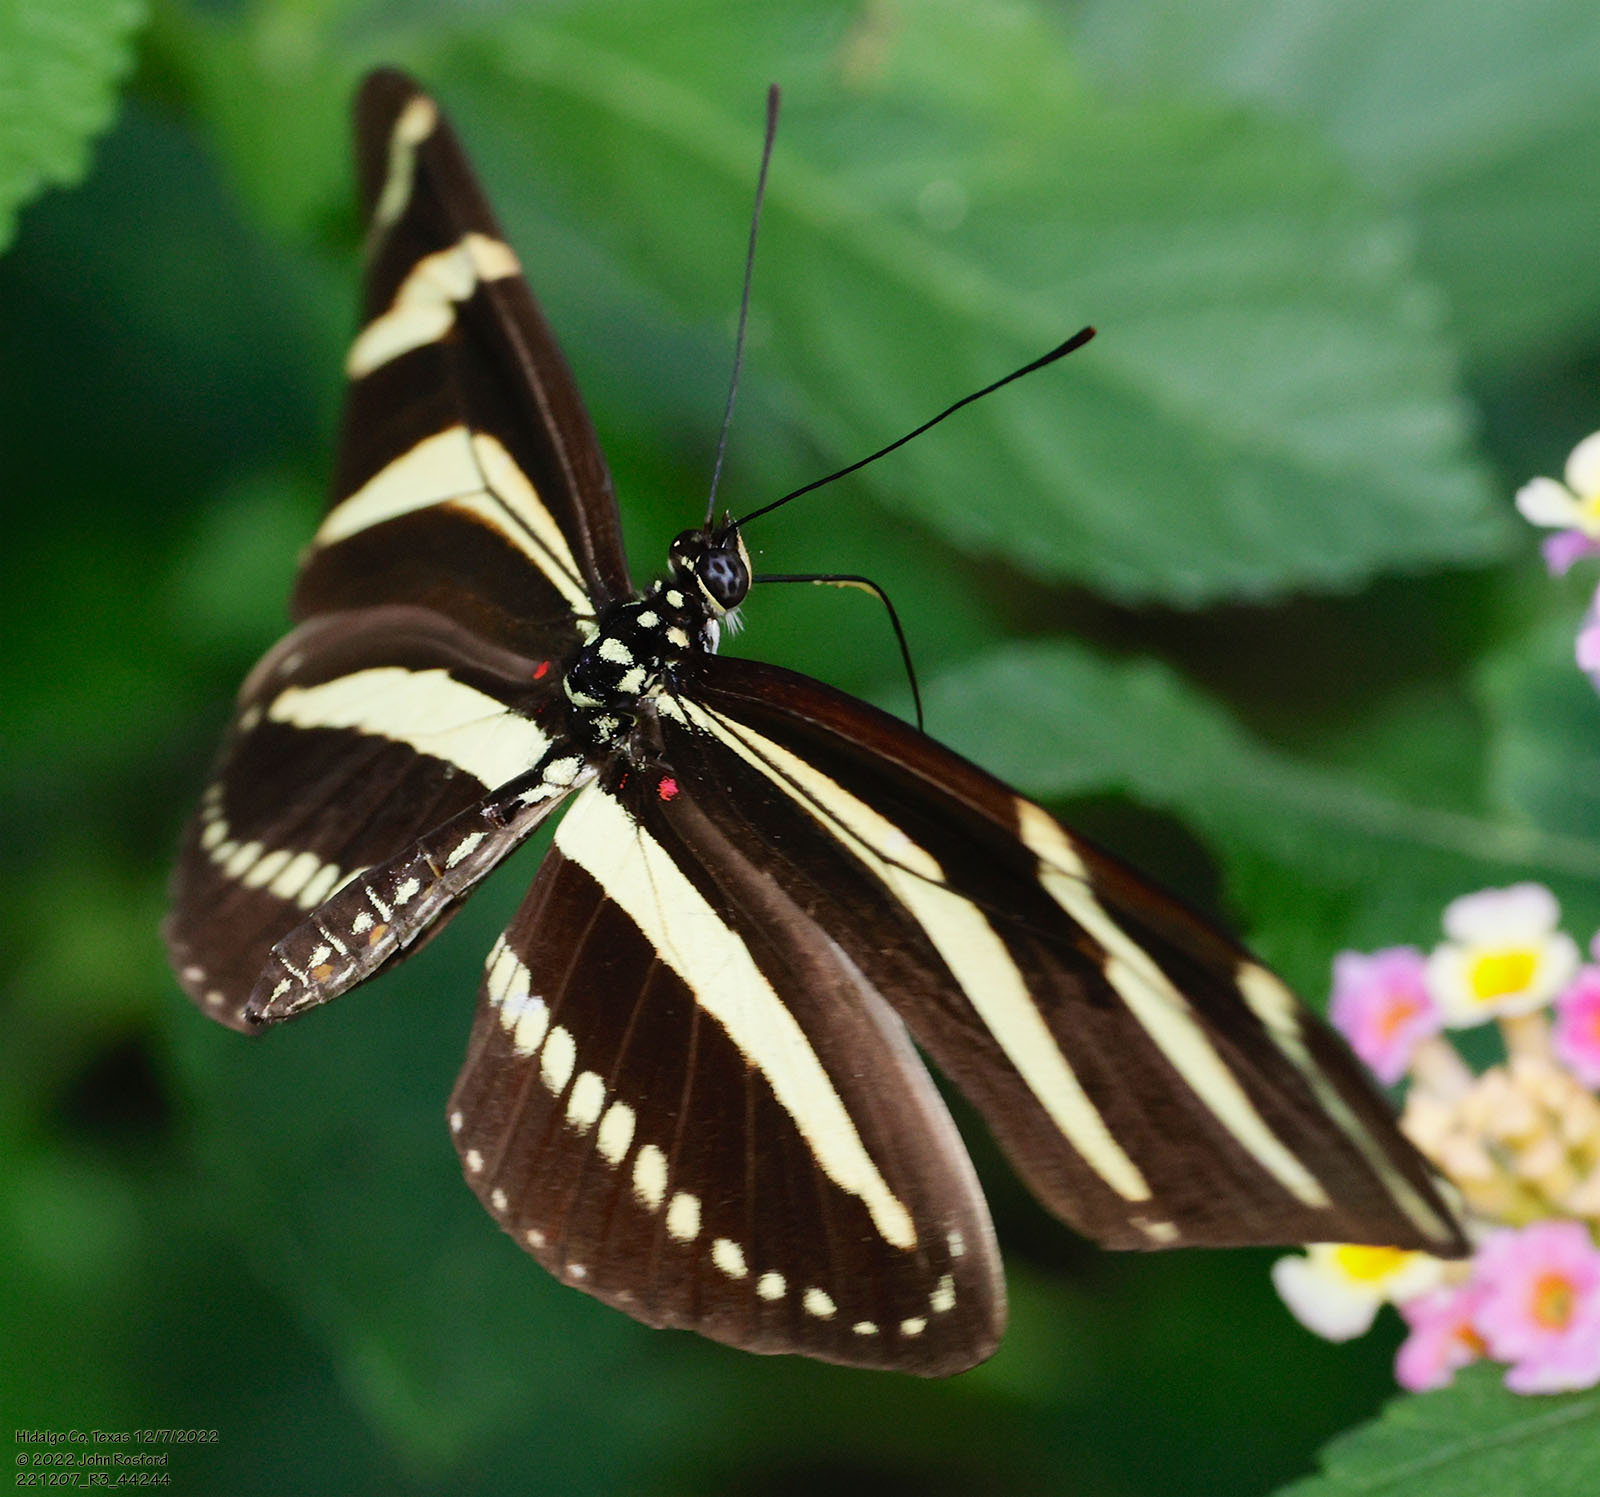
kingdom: Animalia
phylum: Arthropoda
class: Insecta
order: Lepidoptera
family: Nymphalidae
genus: Heliconius
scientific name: Heliconius charithonia
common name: Zebra long wing
